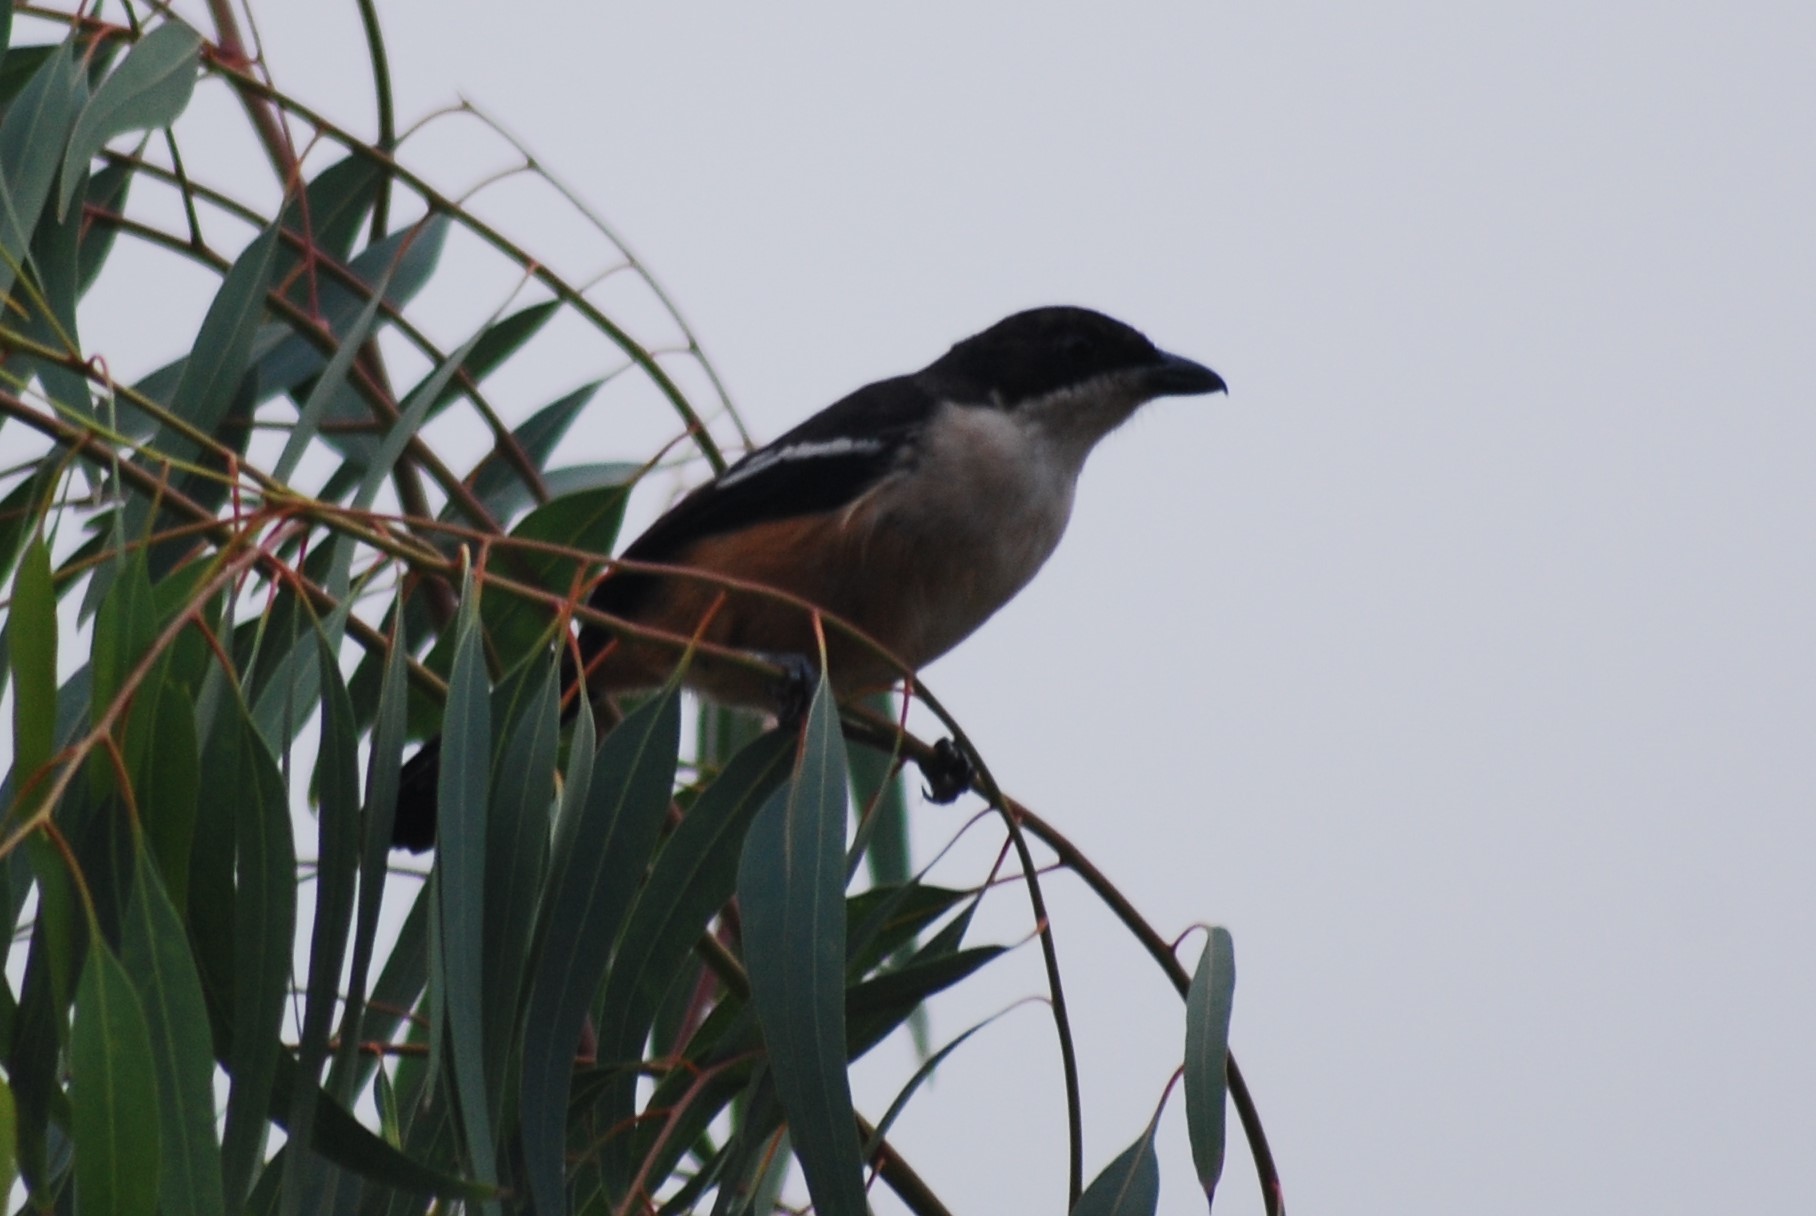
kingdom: Animalia
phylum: Chordata
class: Aves
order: Passeriformes
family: Malaconotidae
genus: Laniarius
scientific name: Laniarius ferrugineus
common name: Southern boubou
